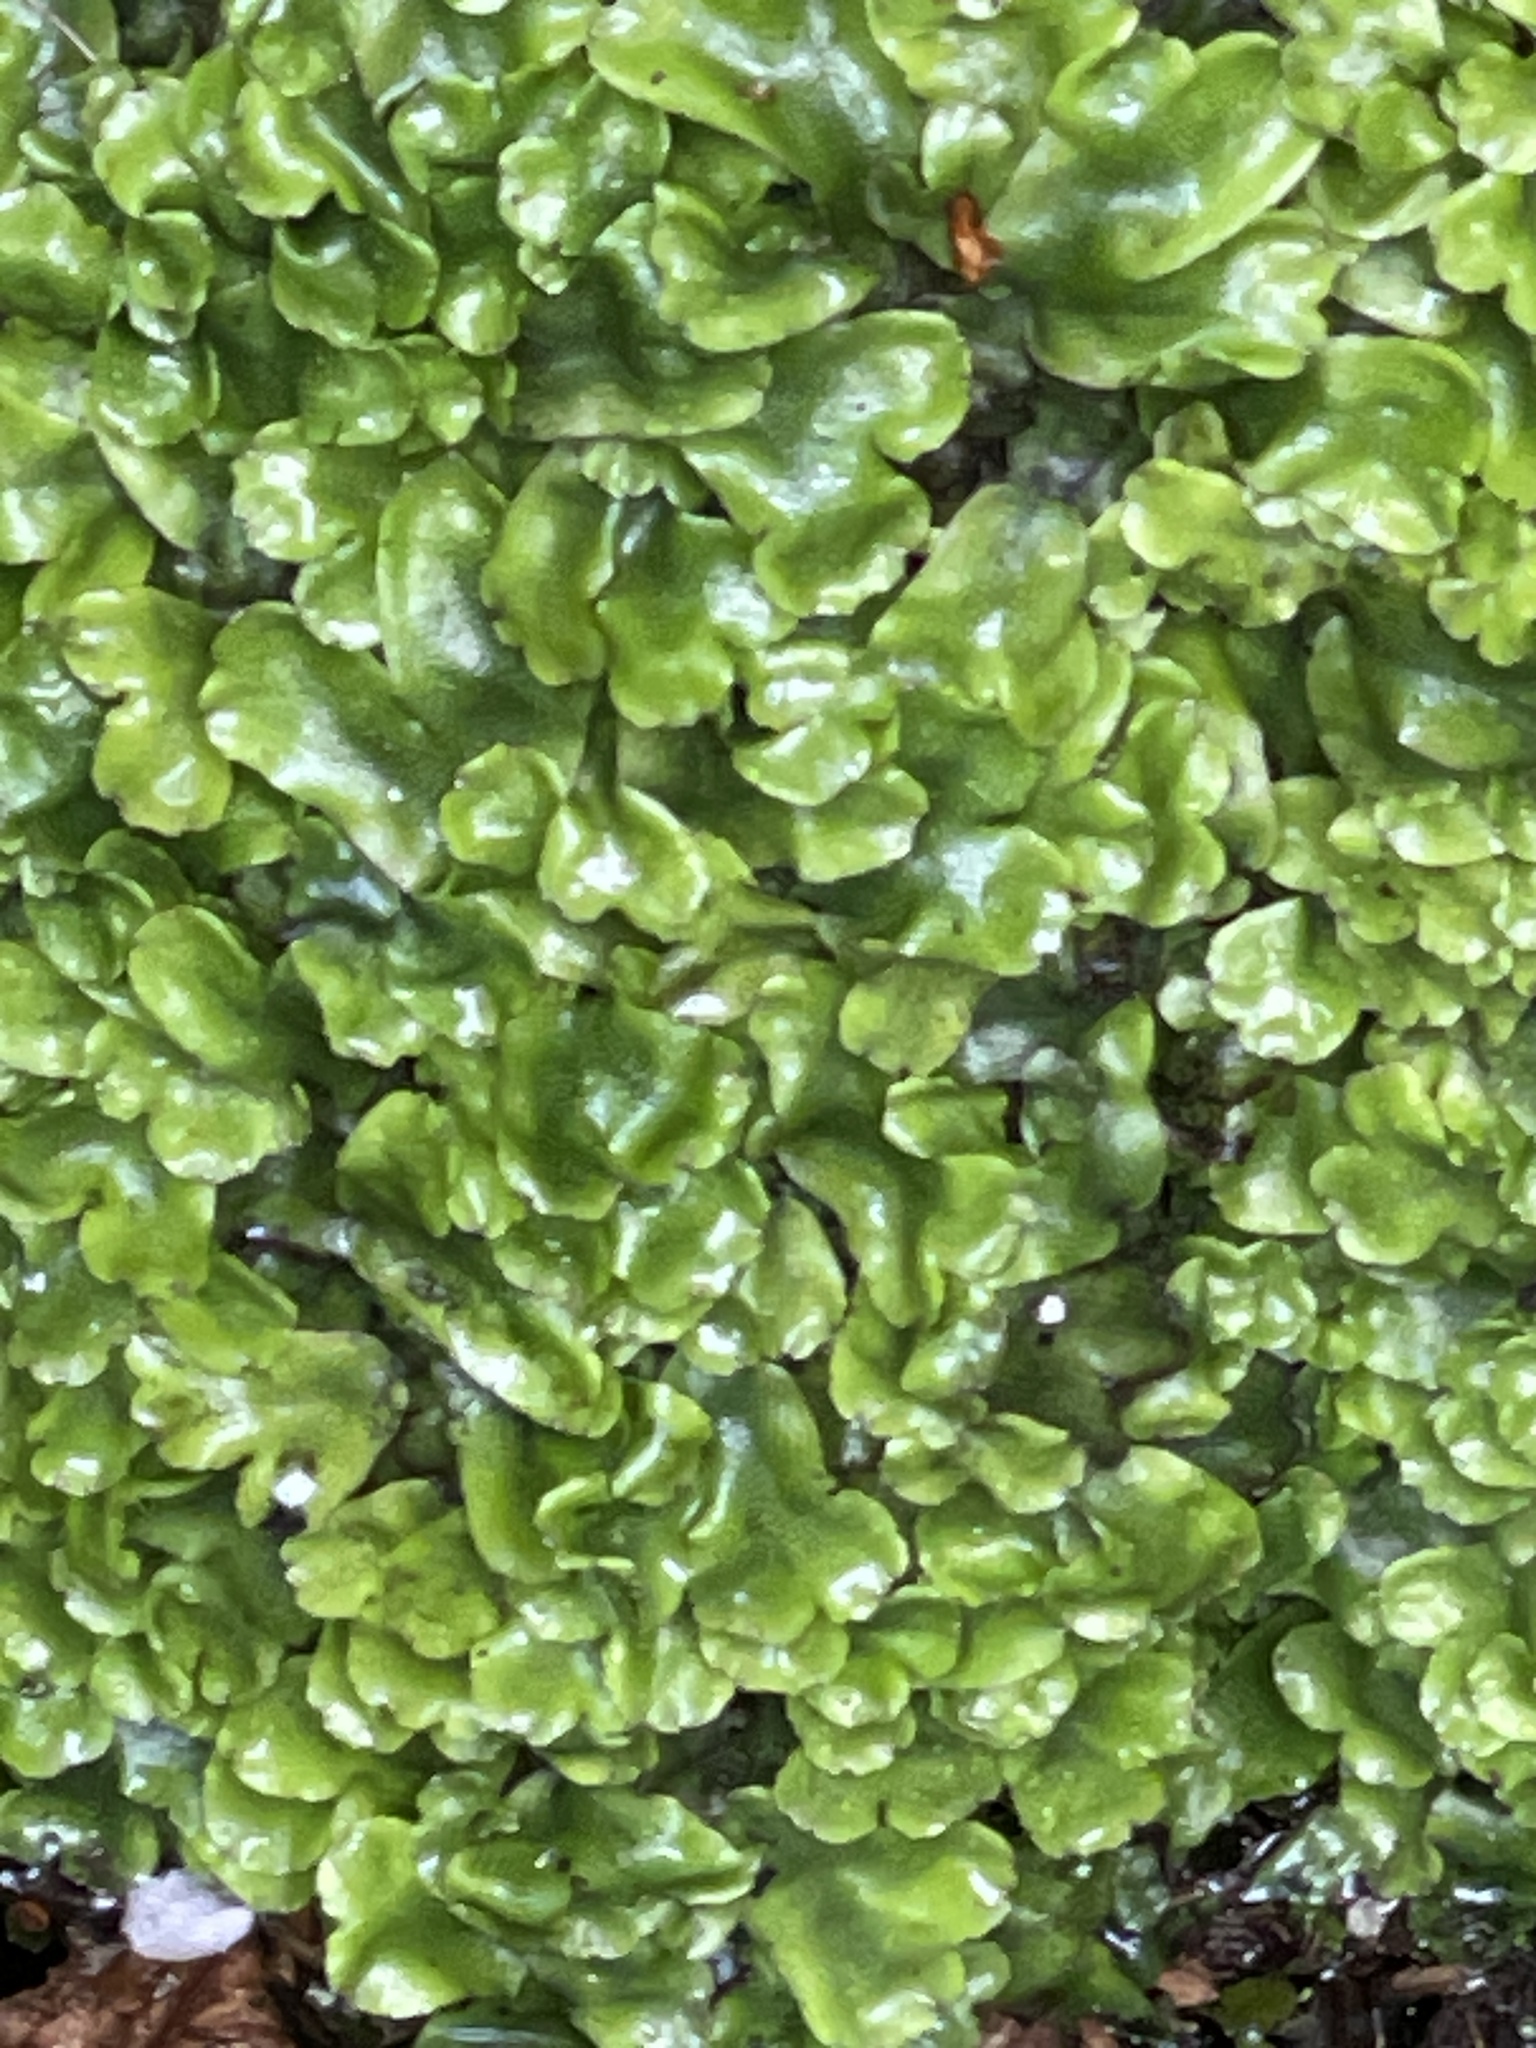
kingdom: Plantae
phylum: Marchantiophyta
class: Marchantiopsida
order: Marchantiales
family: Conocephalaceae
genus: Conocephalum
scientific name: Conocephalum conicum
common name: Great scented liverwort
